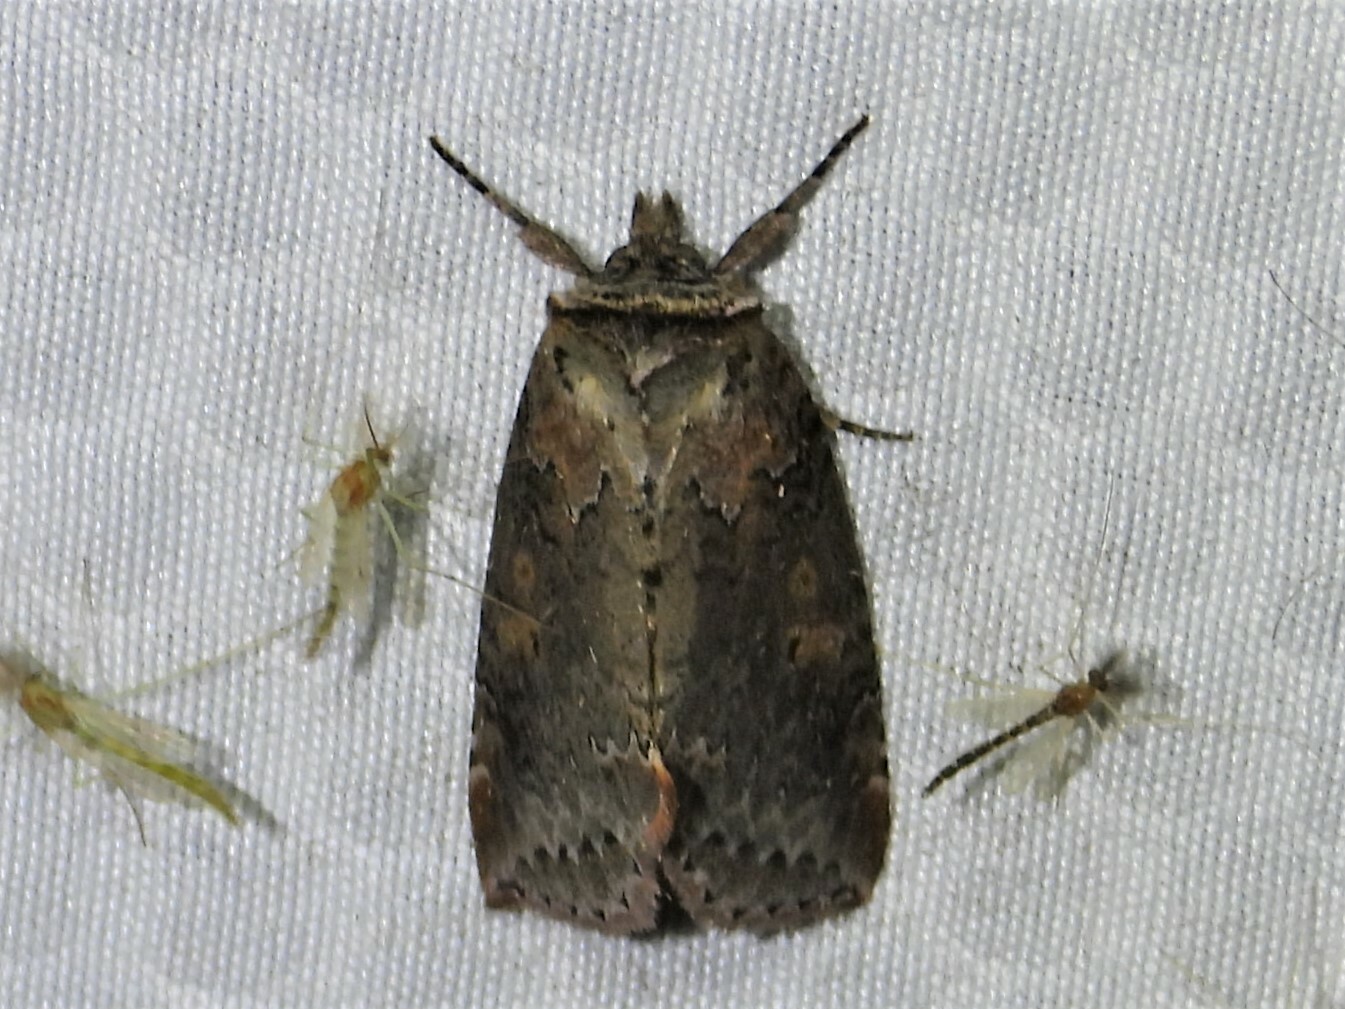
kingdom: Animalia
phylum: Arthropoda
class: Insecta
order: Lepidoptera
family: Drepanidae
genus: Pseudothyatira
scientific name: Pseudothyatira cymatophoroides
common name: Tufted thyatirid moth
